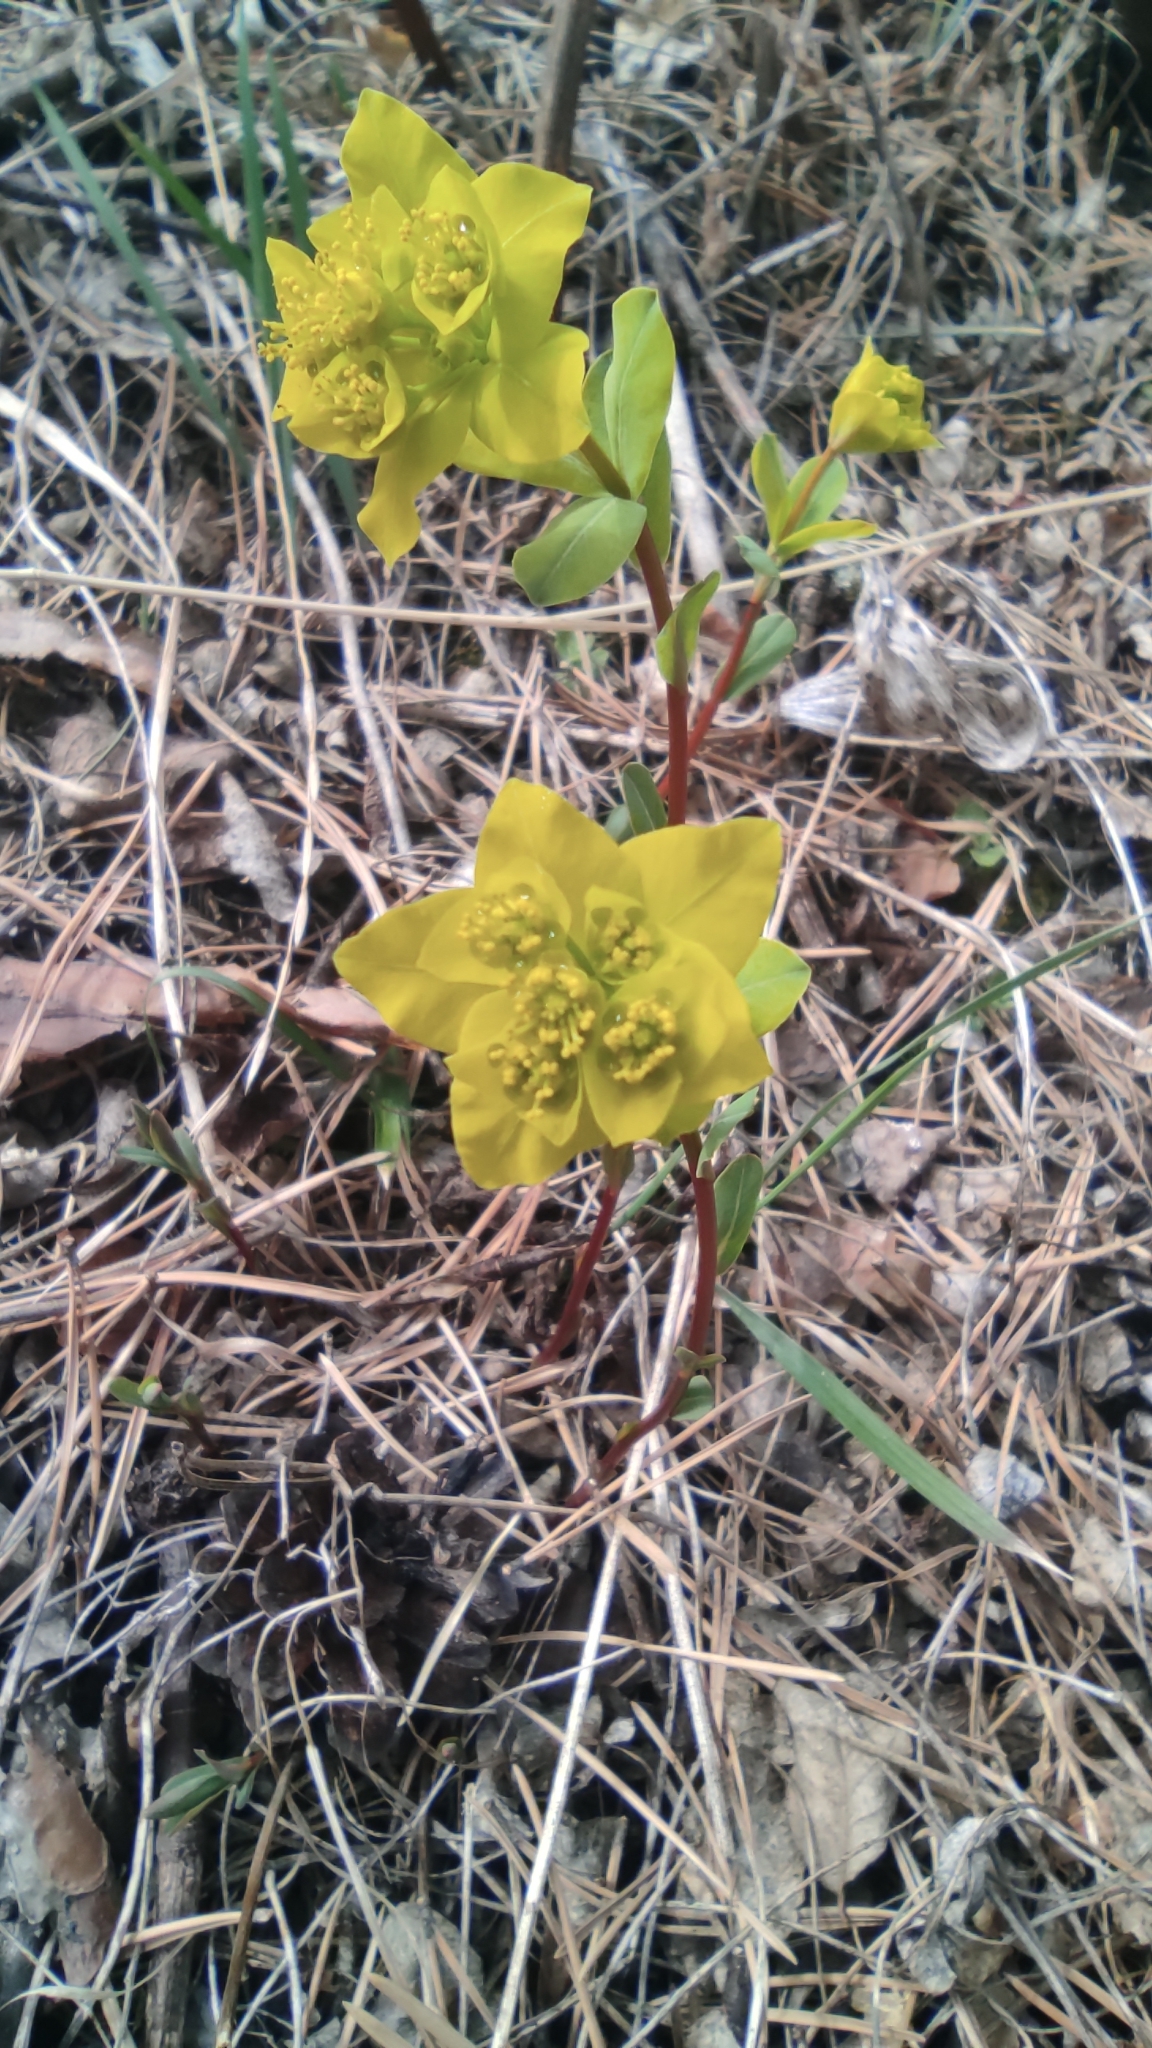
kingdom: Plantae
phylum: Tracheophyta
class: Magnoliopsida
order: Malpighiales
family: Euphorbiaceae
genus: Euphorbia
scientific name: Euphorbia altaica
